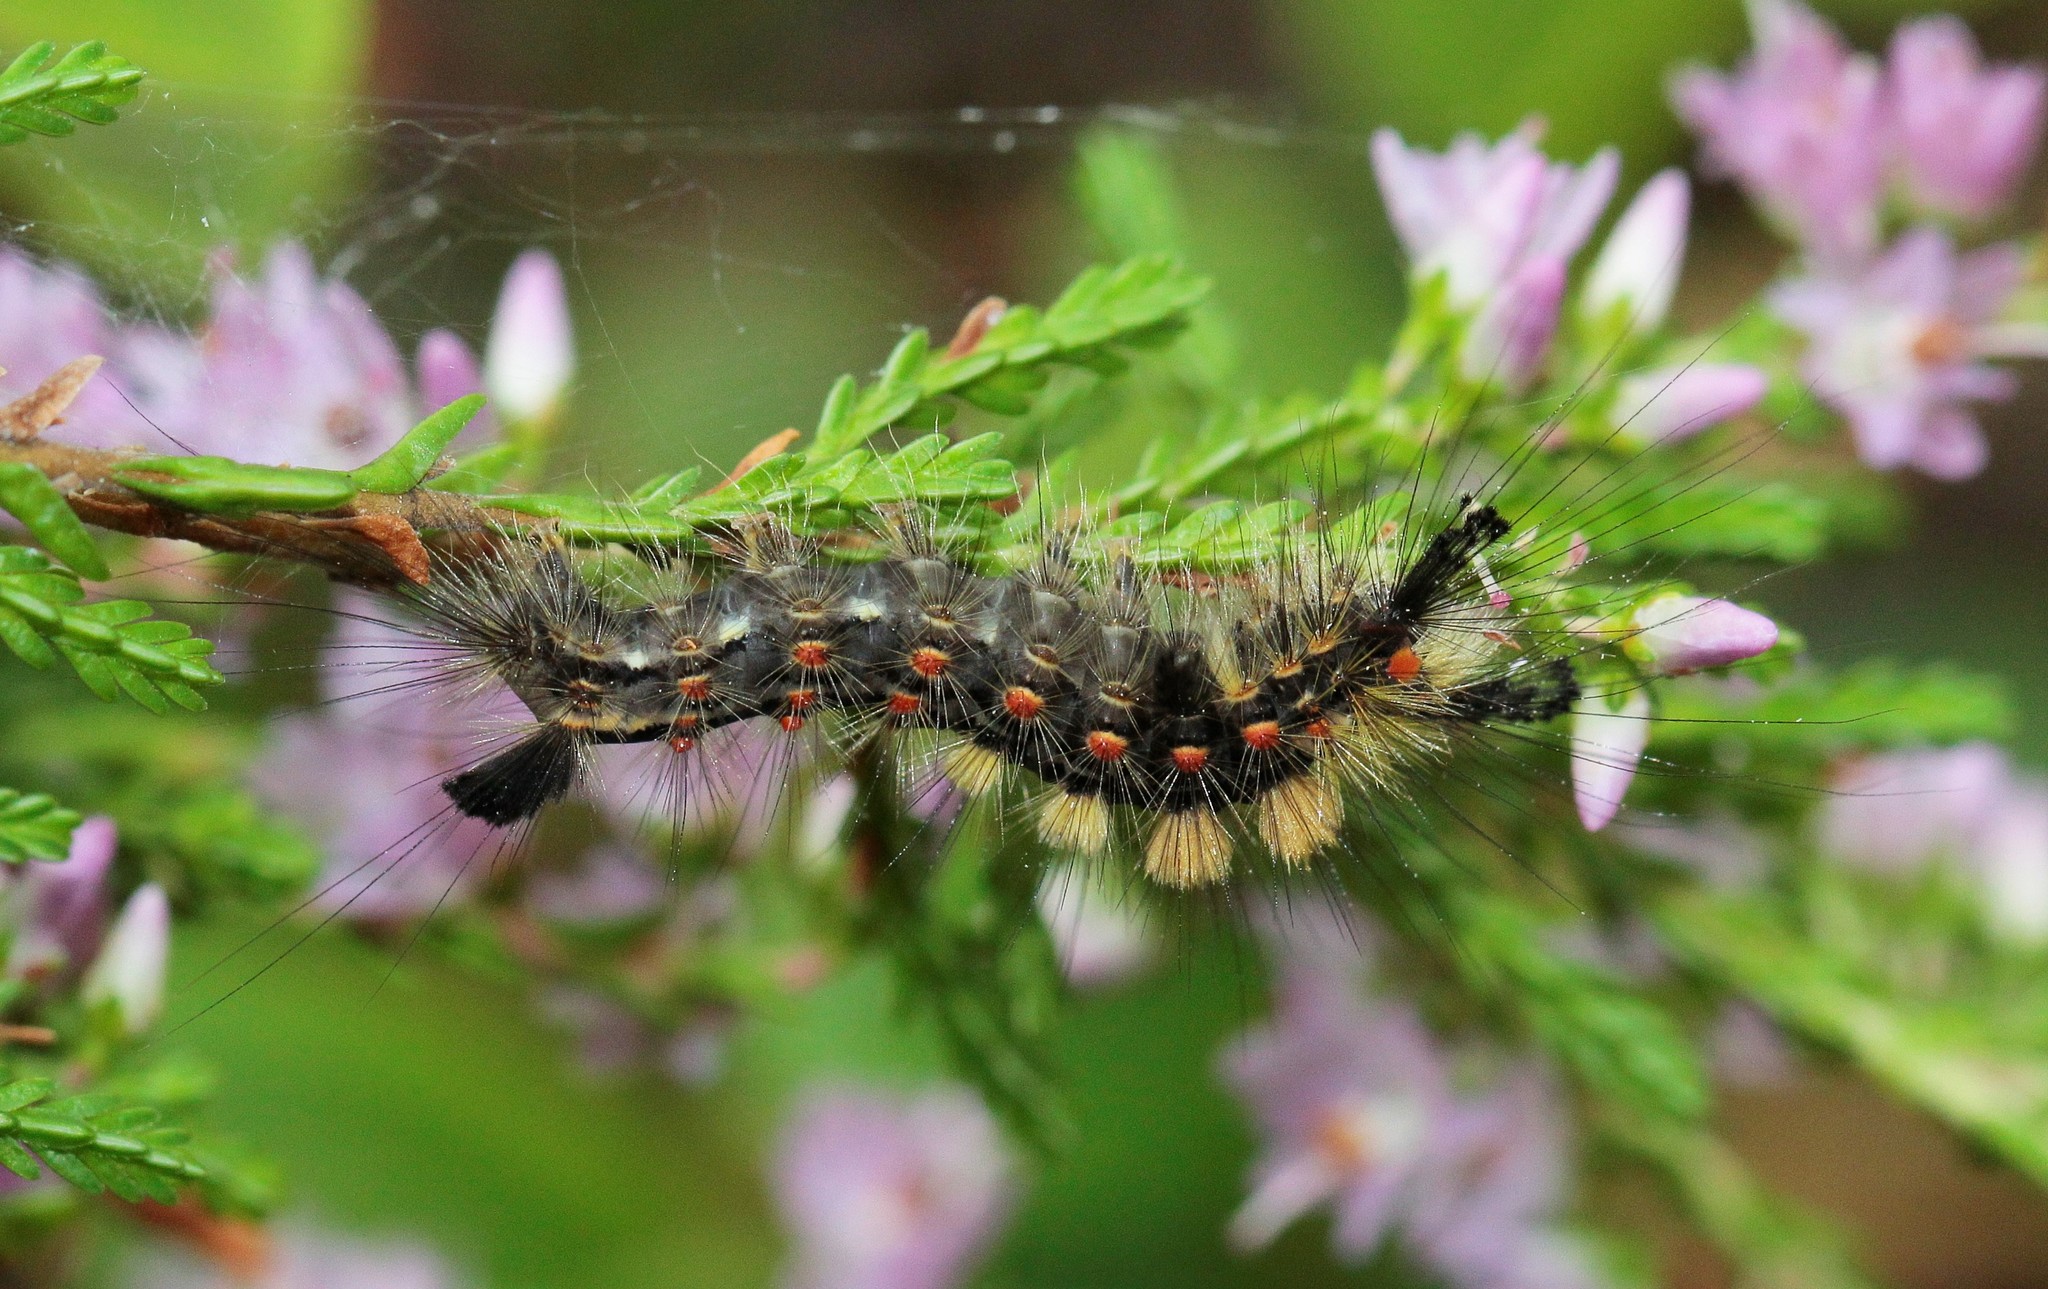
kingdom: Animalia
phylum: Arthropoda
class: Insecta
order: Lepidoptera
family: Erebidae
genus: Orgyia
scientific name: Orgyia antiqua
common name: Vapourer
